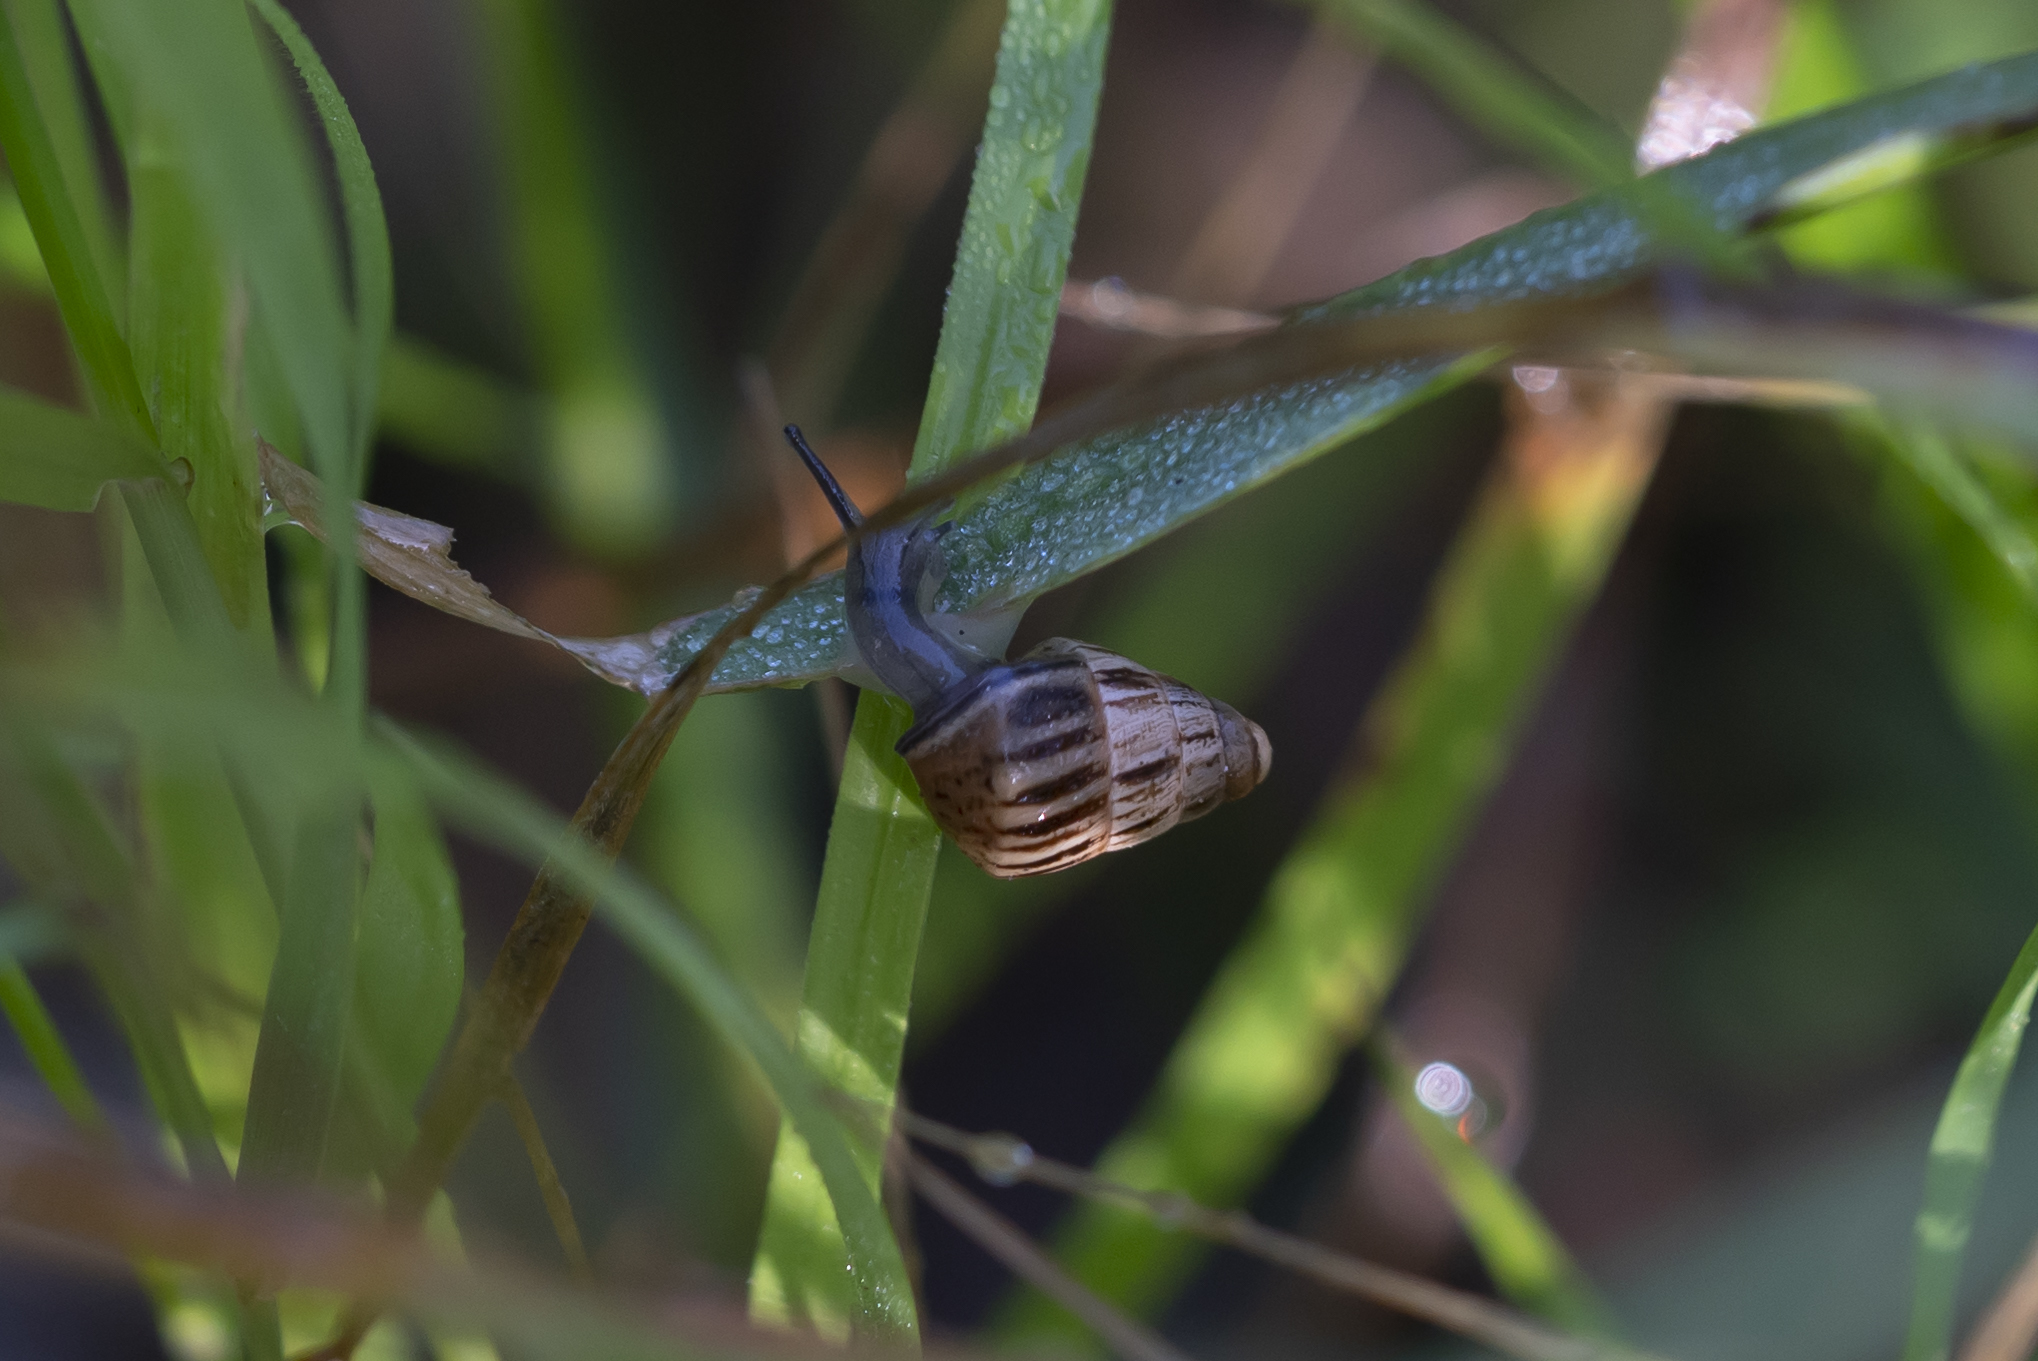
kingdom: Animalia
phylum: Mollusca
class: Gastropoda
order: Stylommatophora
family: Geomitridae
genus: Cochlicella
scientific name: Cochlicella barbara
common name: Potbellied helicellid
